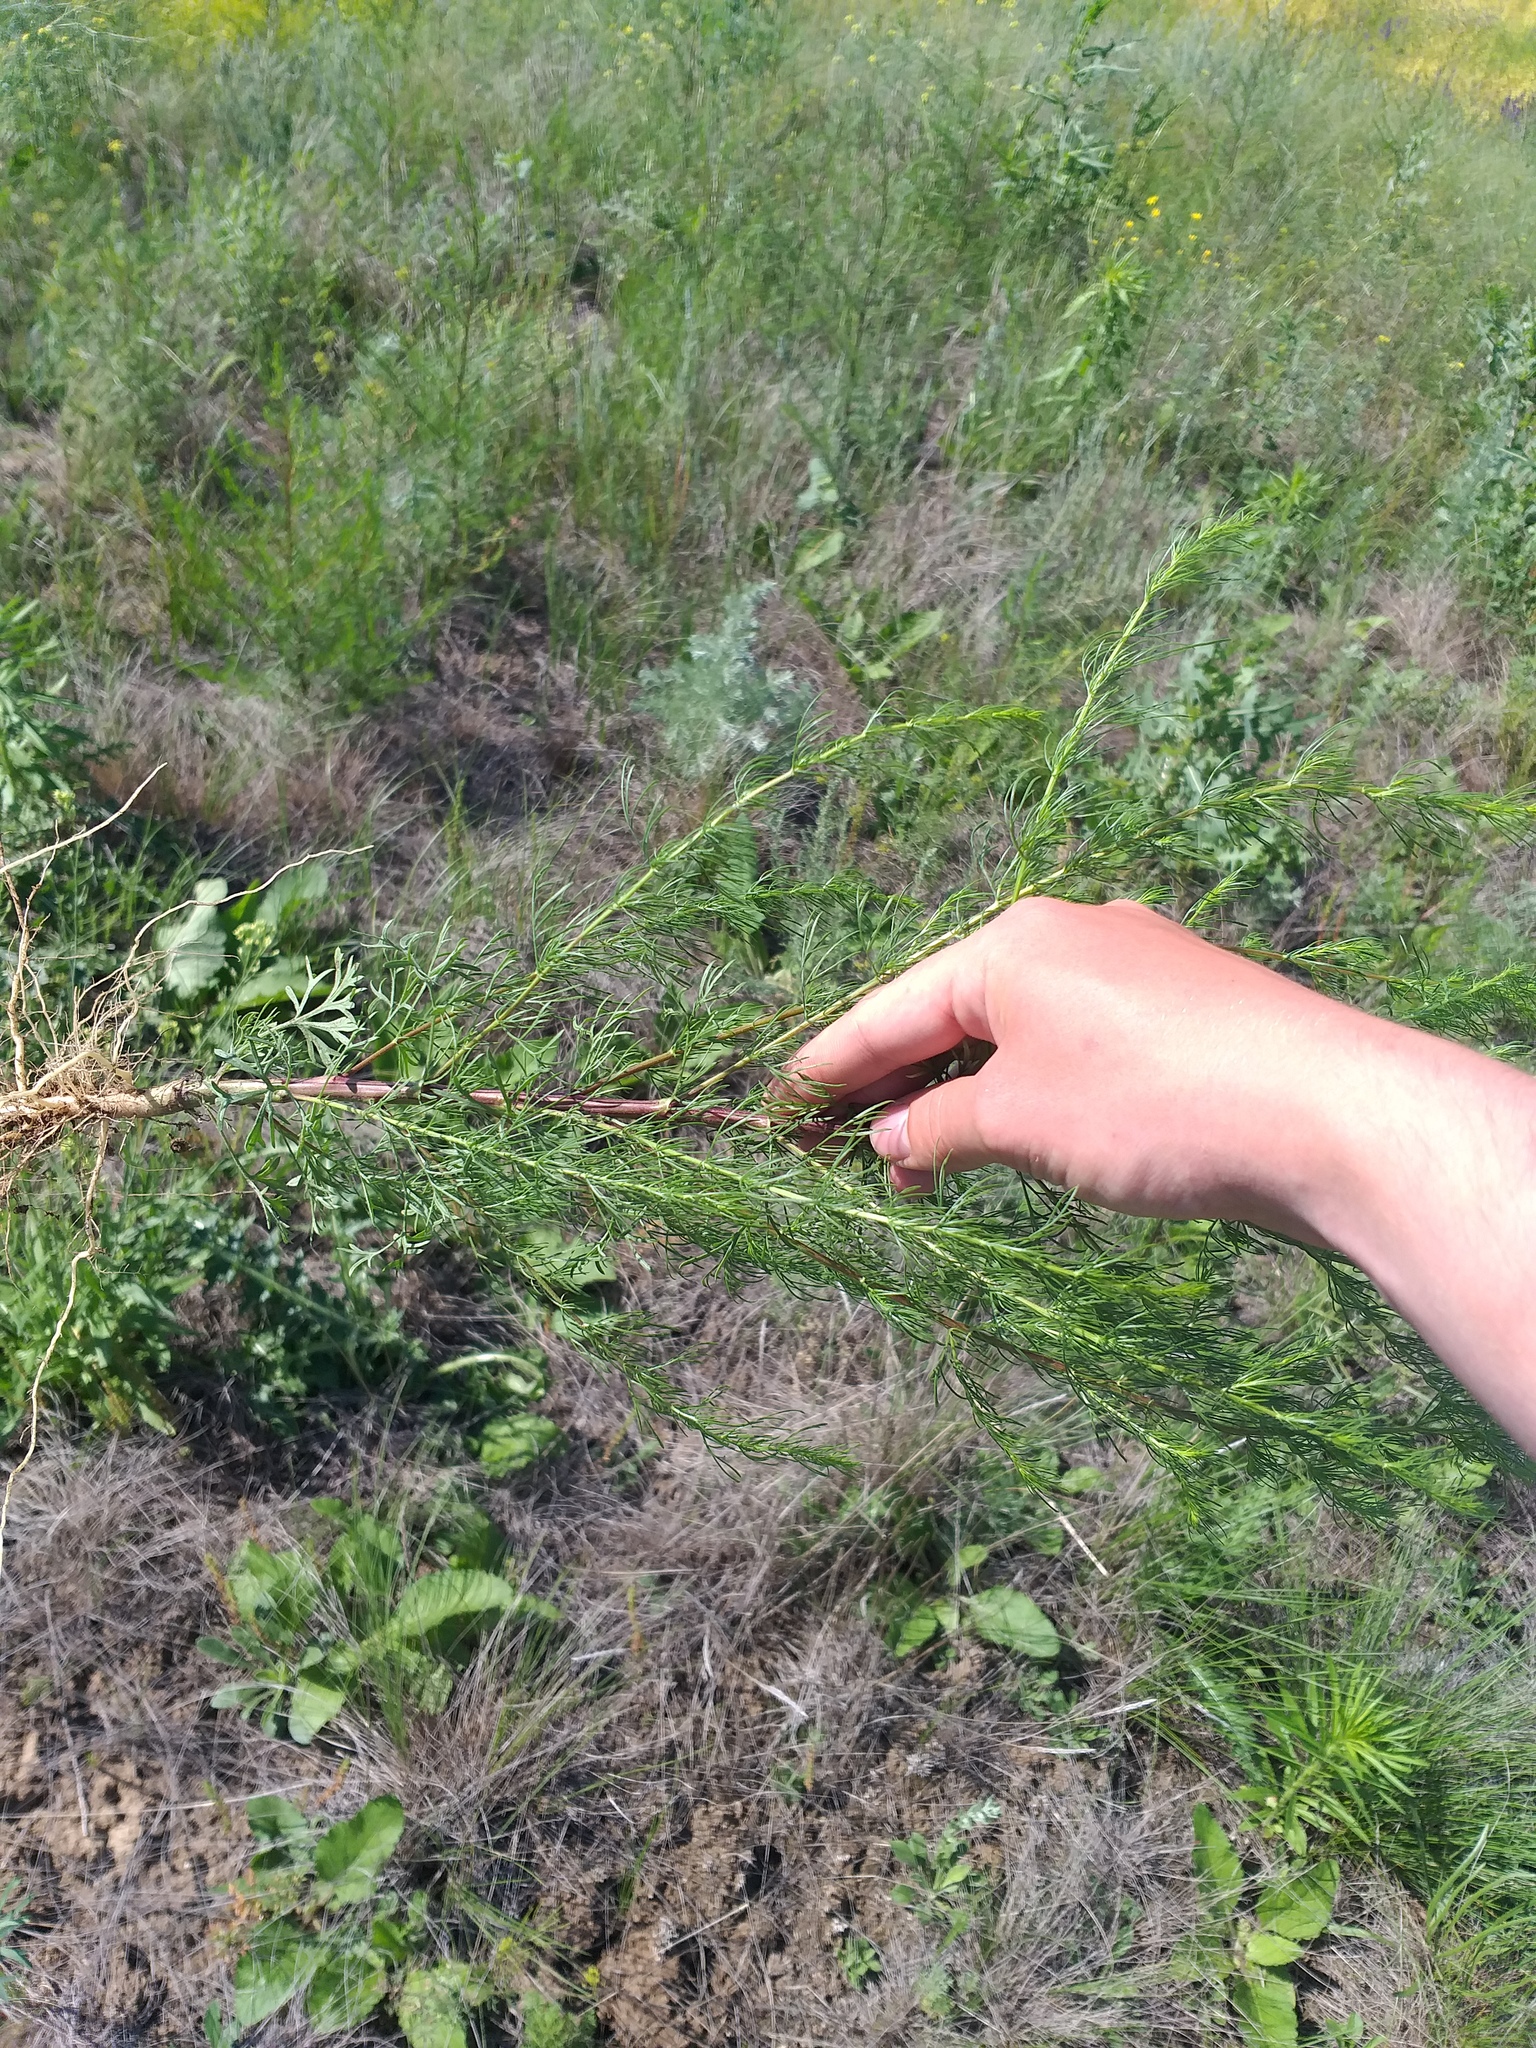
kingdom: Plantae
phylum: Tracheophyta
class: Magnoliopsida
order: Asterales
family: Asteraceae
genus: Artemisia
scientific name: Artemisia scoparia
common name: Redstem wormwood
